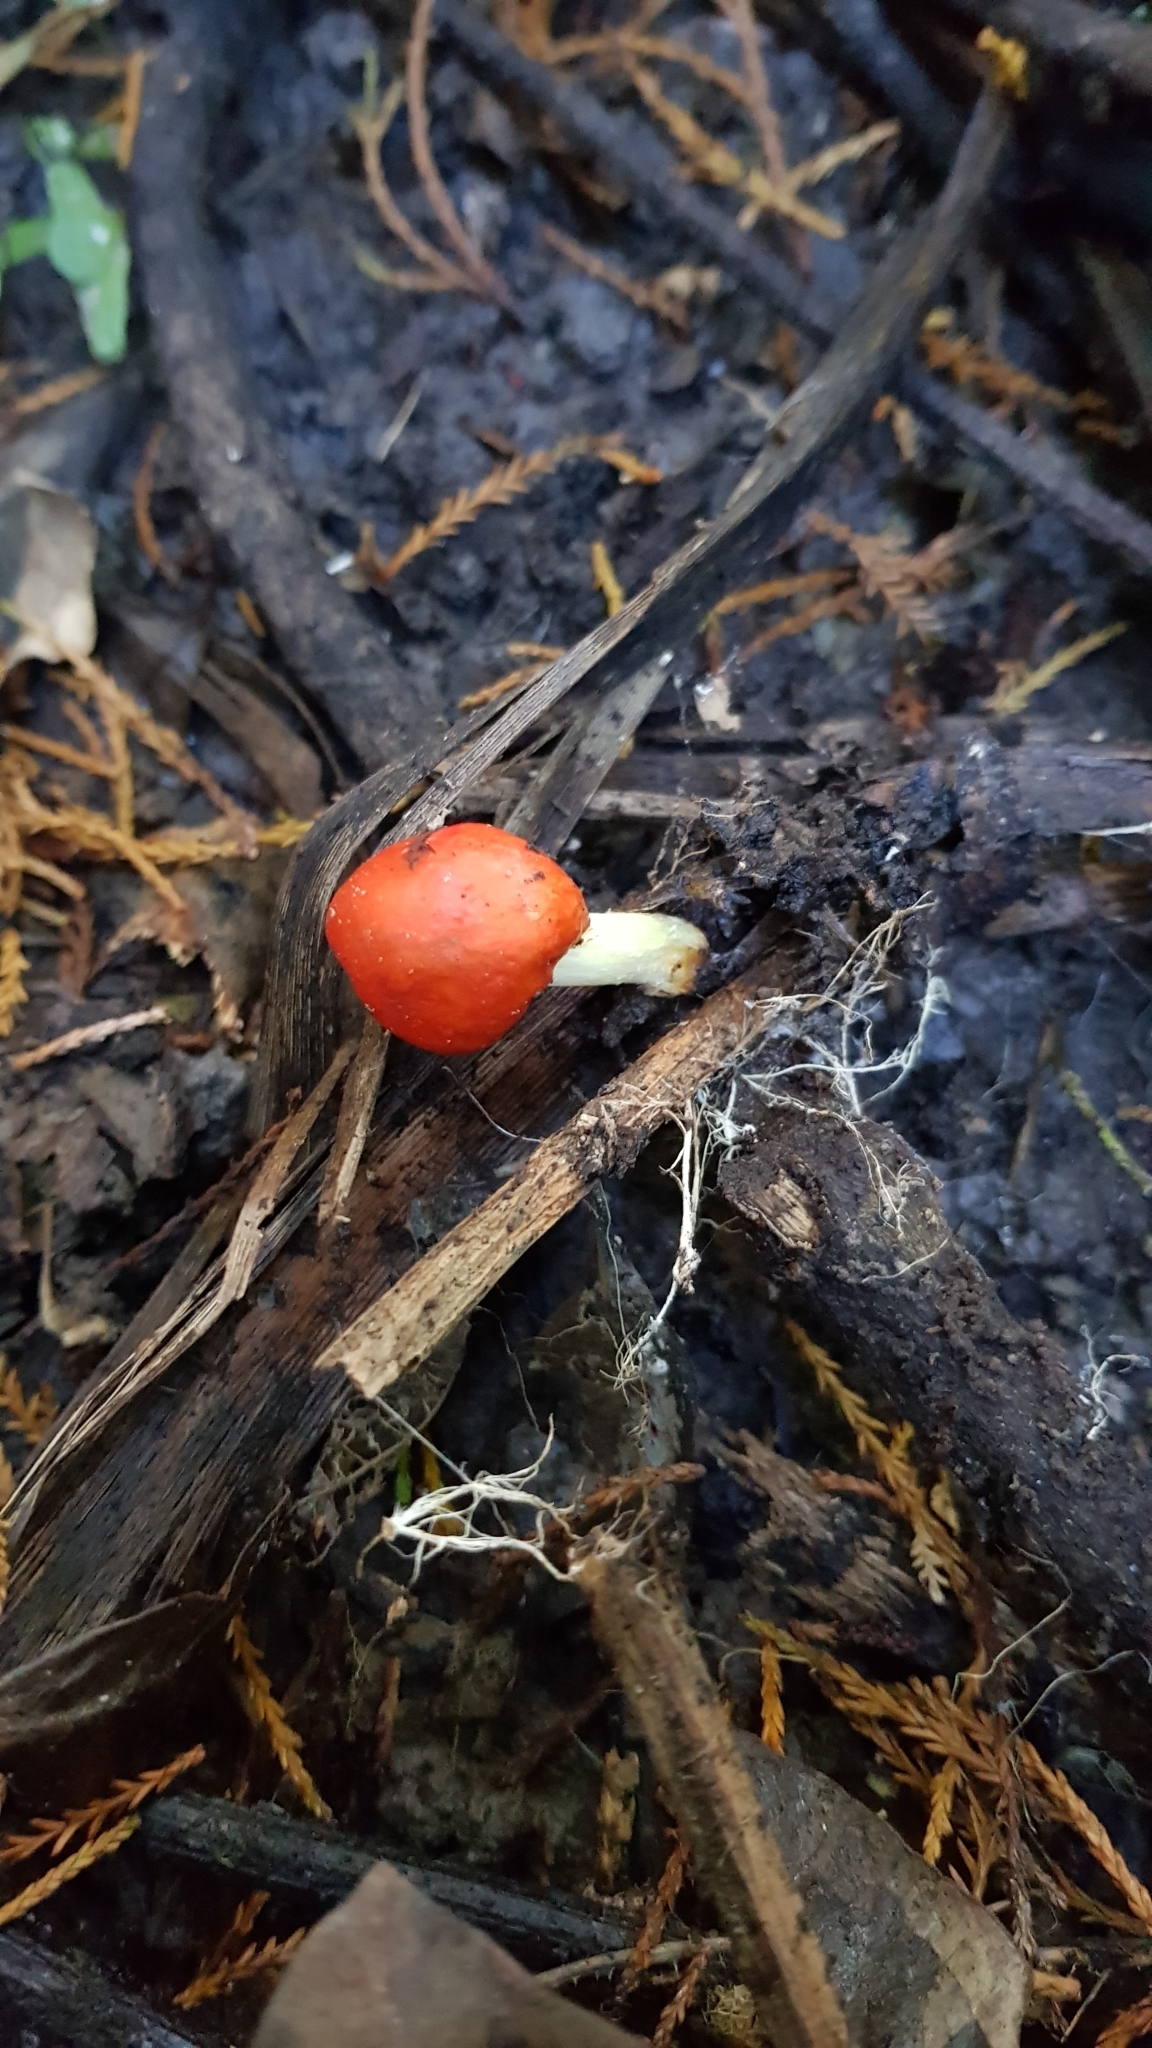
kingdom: Fungi
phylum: Basidiomycota
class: Agaricomycetes
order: Agaricales
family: Strophariaceae
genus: Leratiomyces
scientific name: Leratiomyces erythrocephalus
